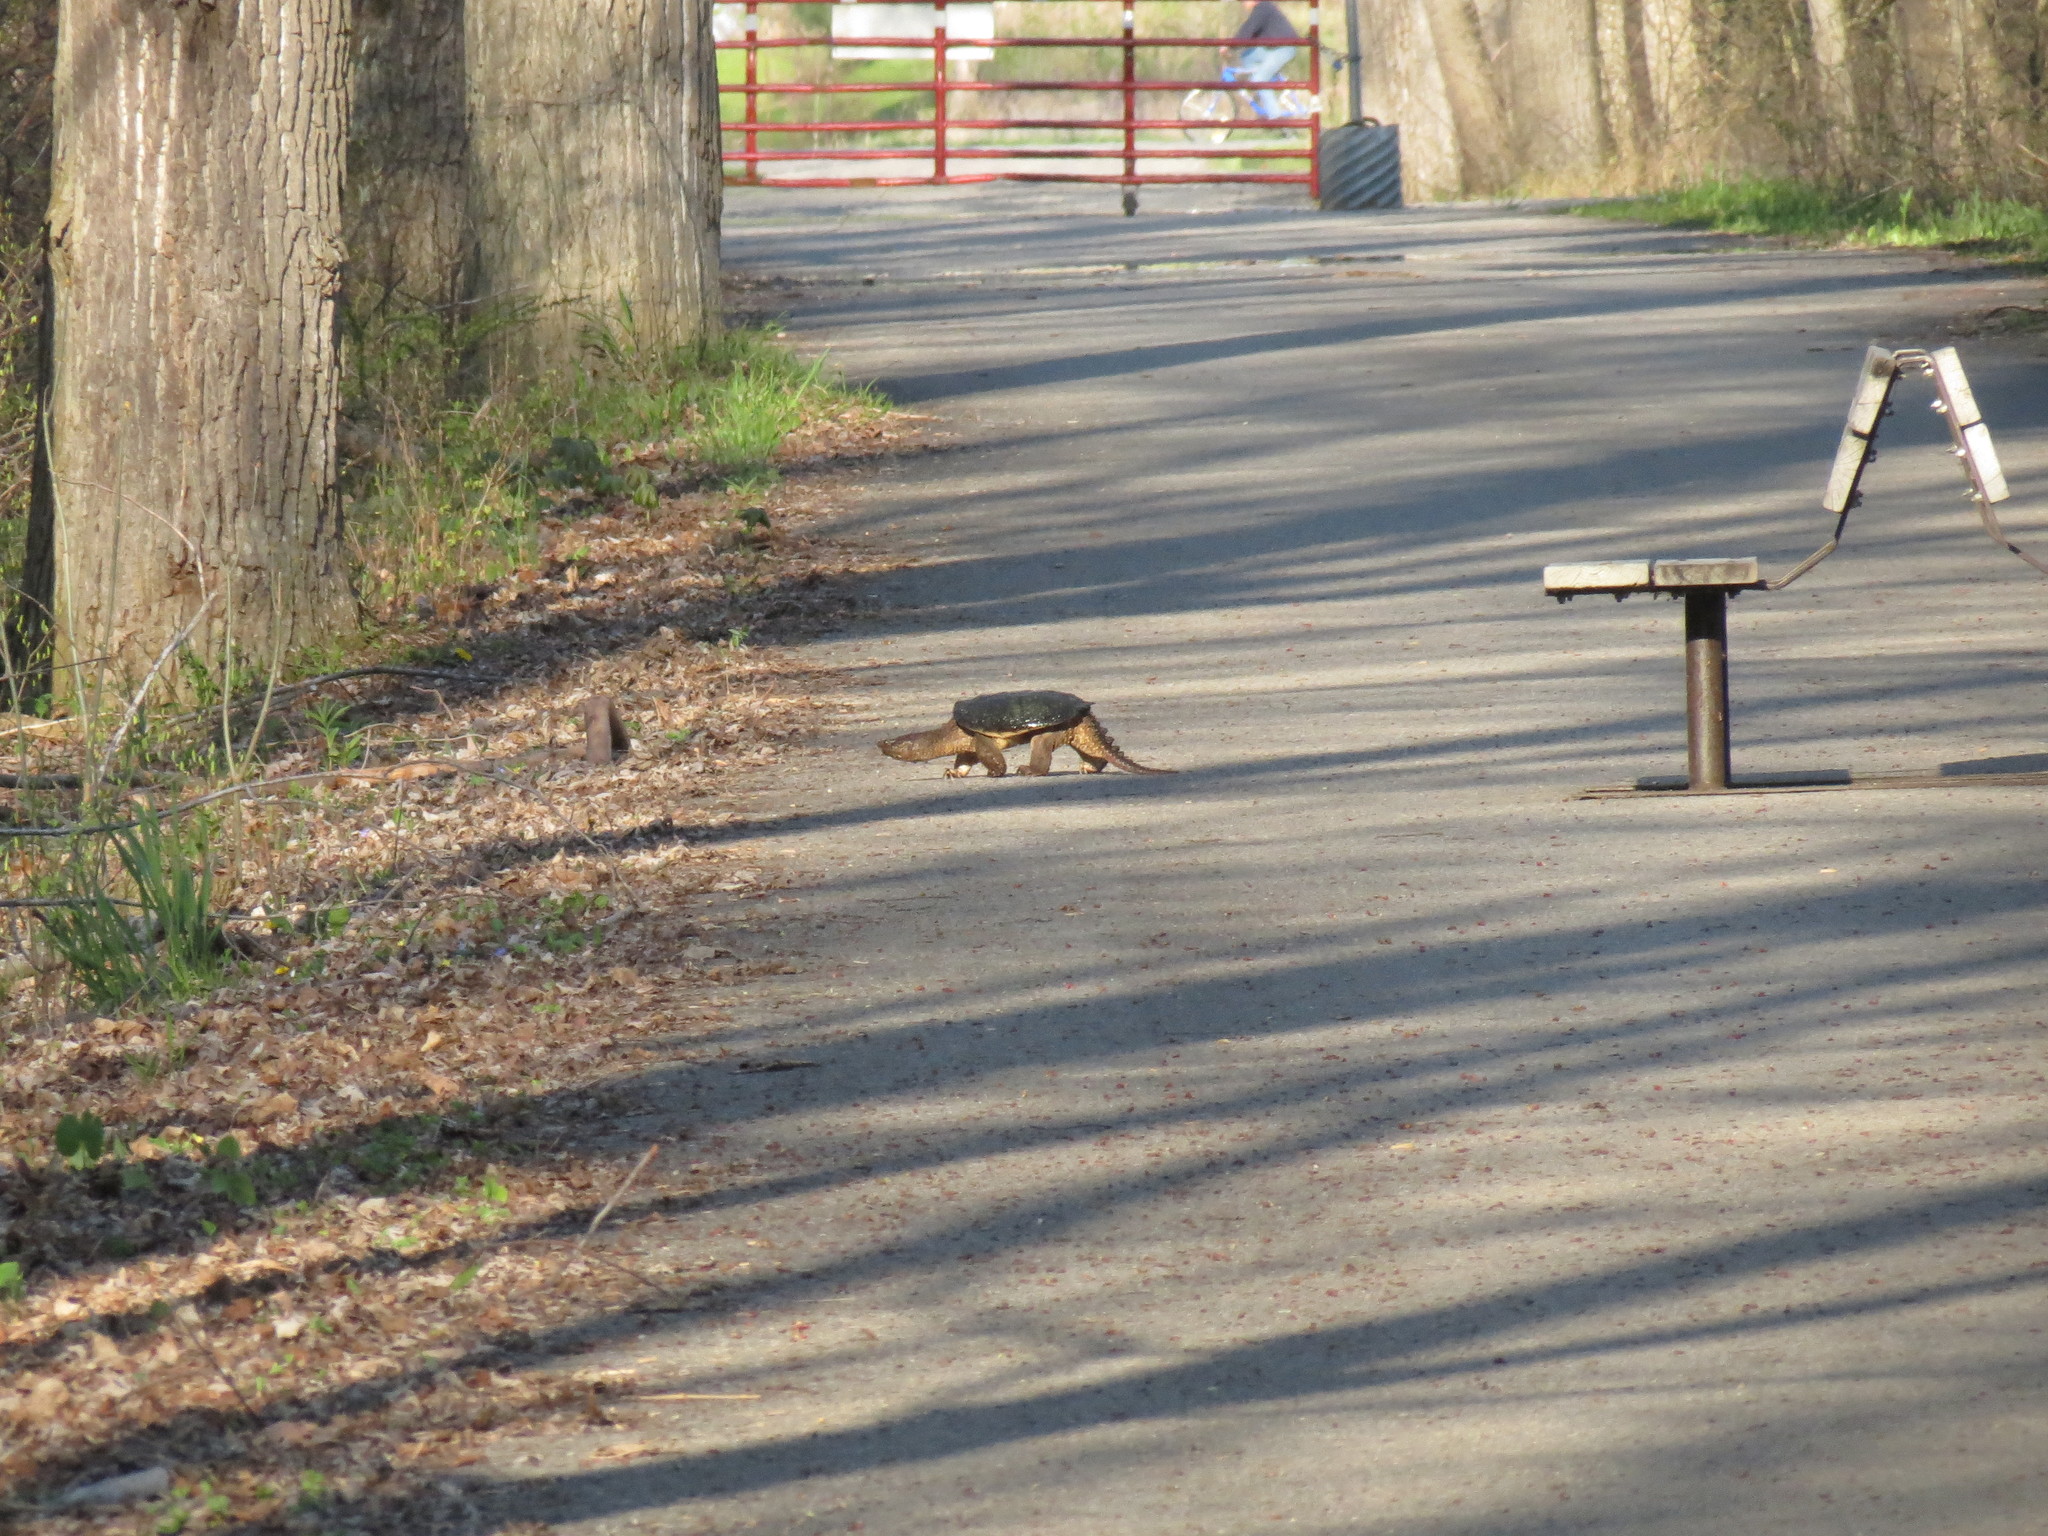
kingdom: Animalia
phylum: Chordata
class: Testudines
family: Chelydridae
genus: Chelydra
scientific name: Chelydra serpentina
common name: Common snapping turtle
